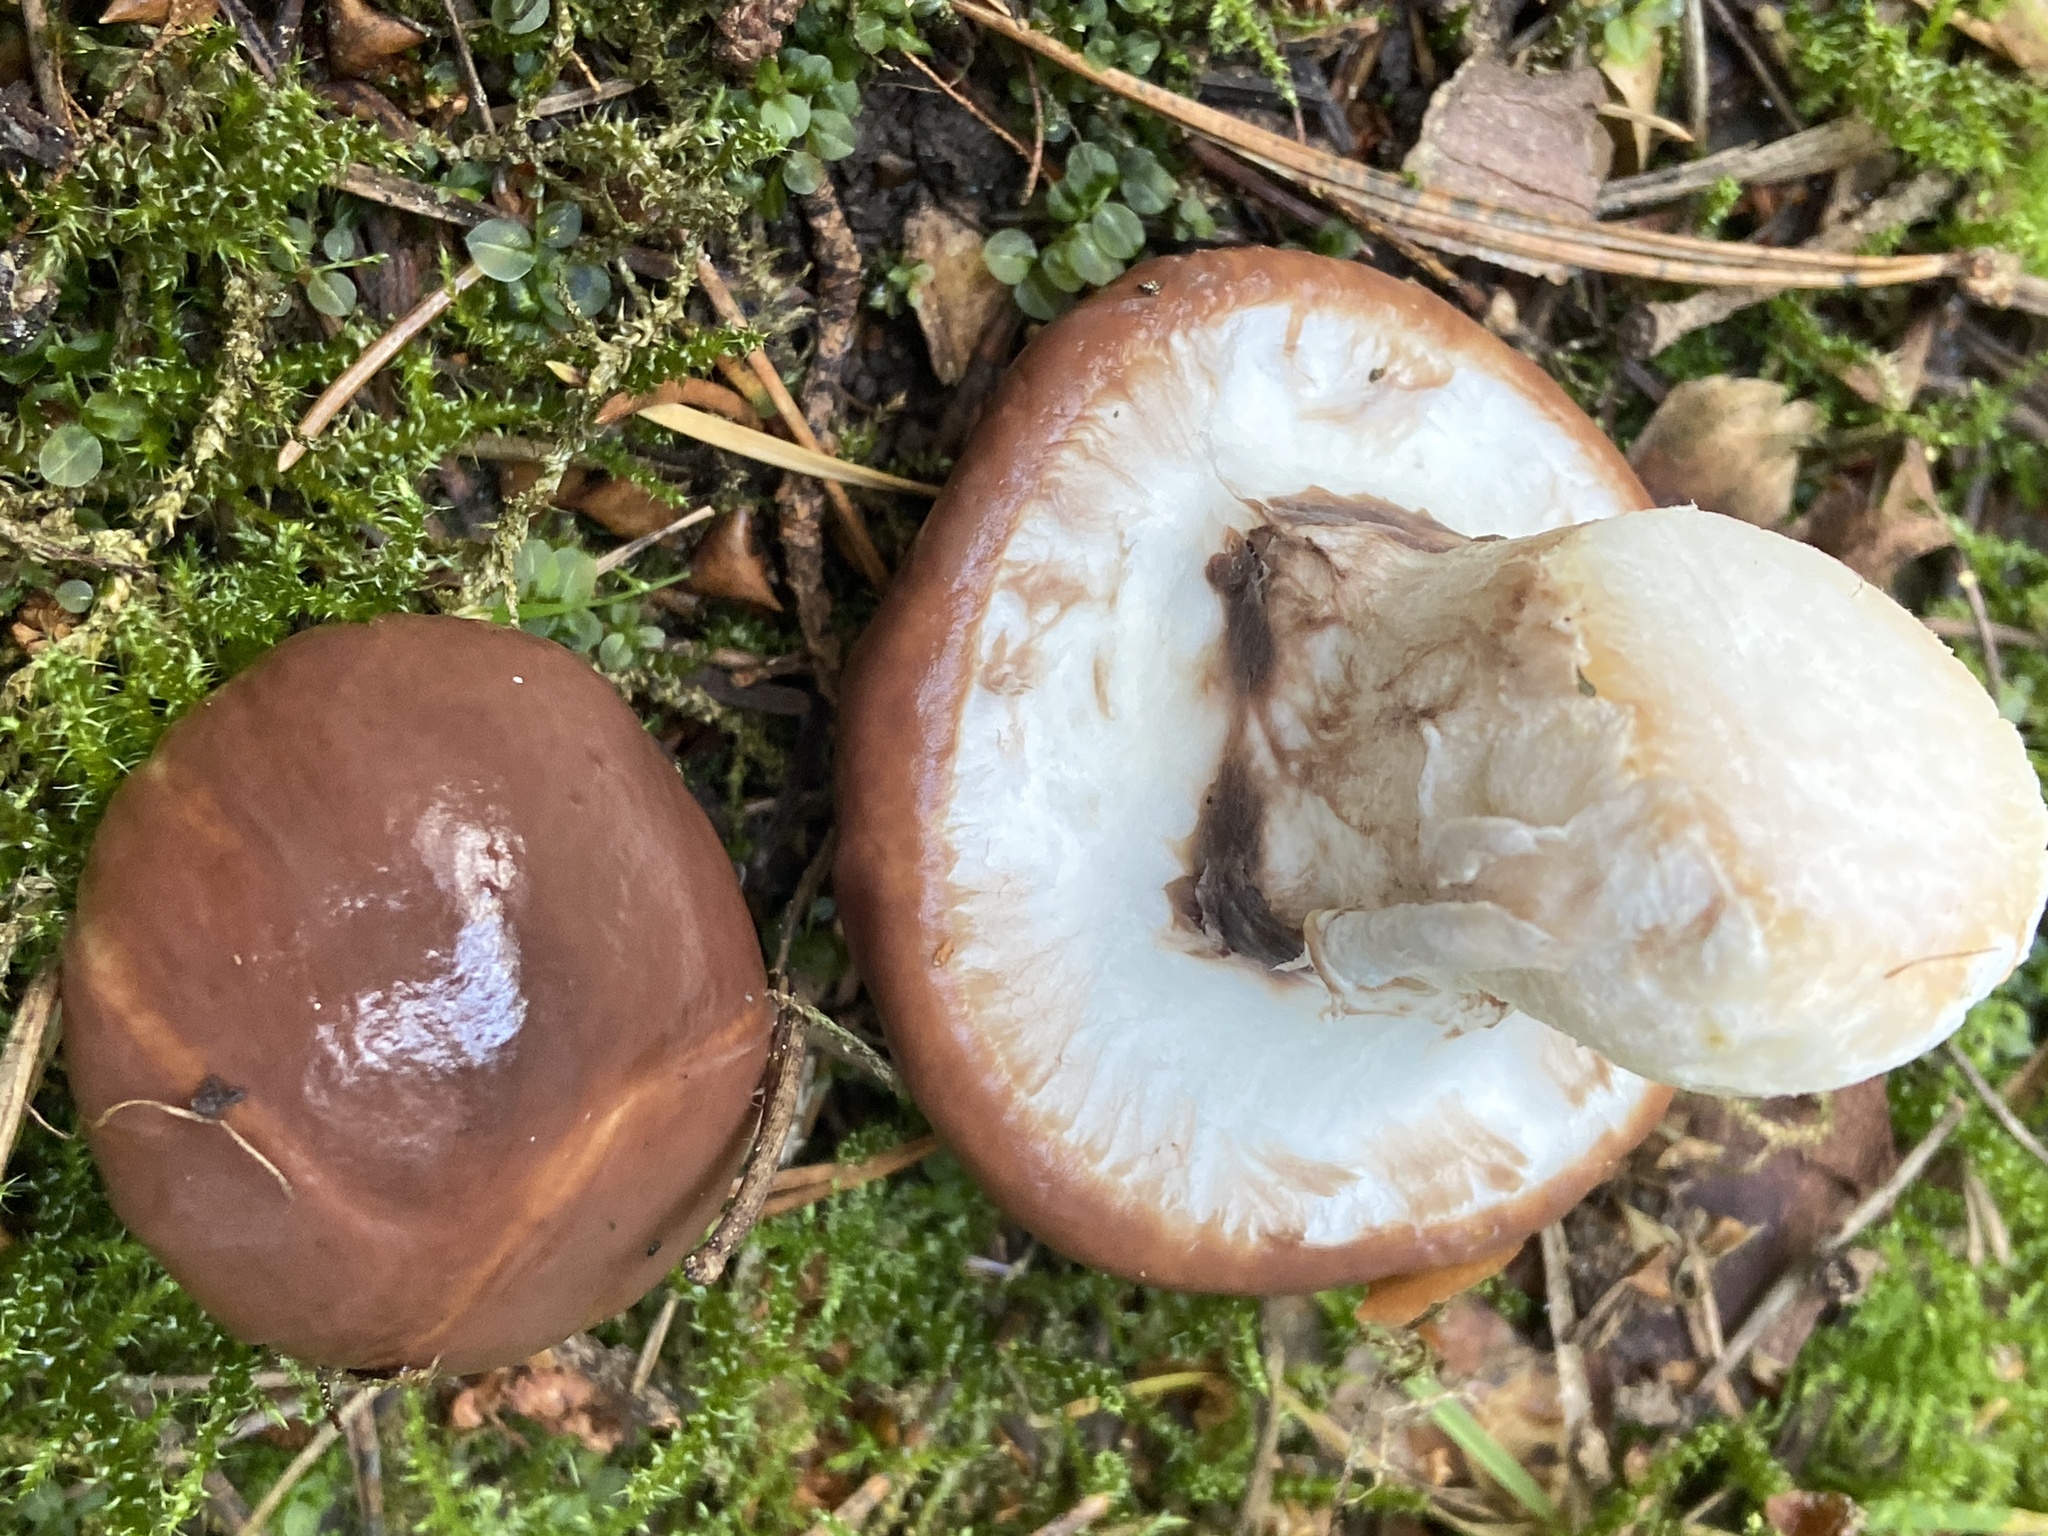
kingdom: Fungi
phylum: Basidiomycota
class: Agaricomycetes
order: Boletales
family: Suillaceae
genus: Suillus
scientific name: Suillus luteus
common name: Slippery jack
